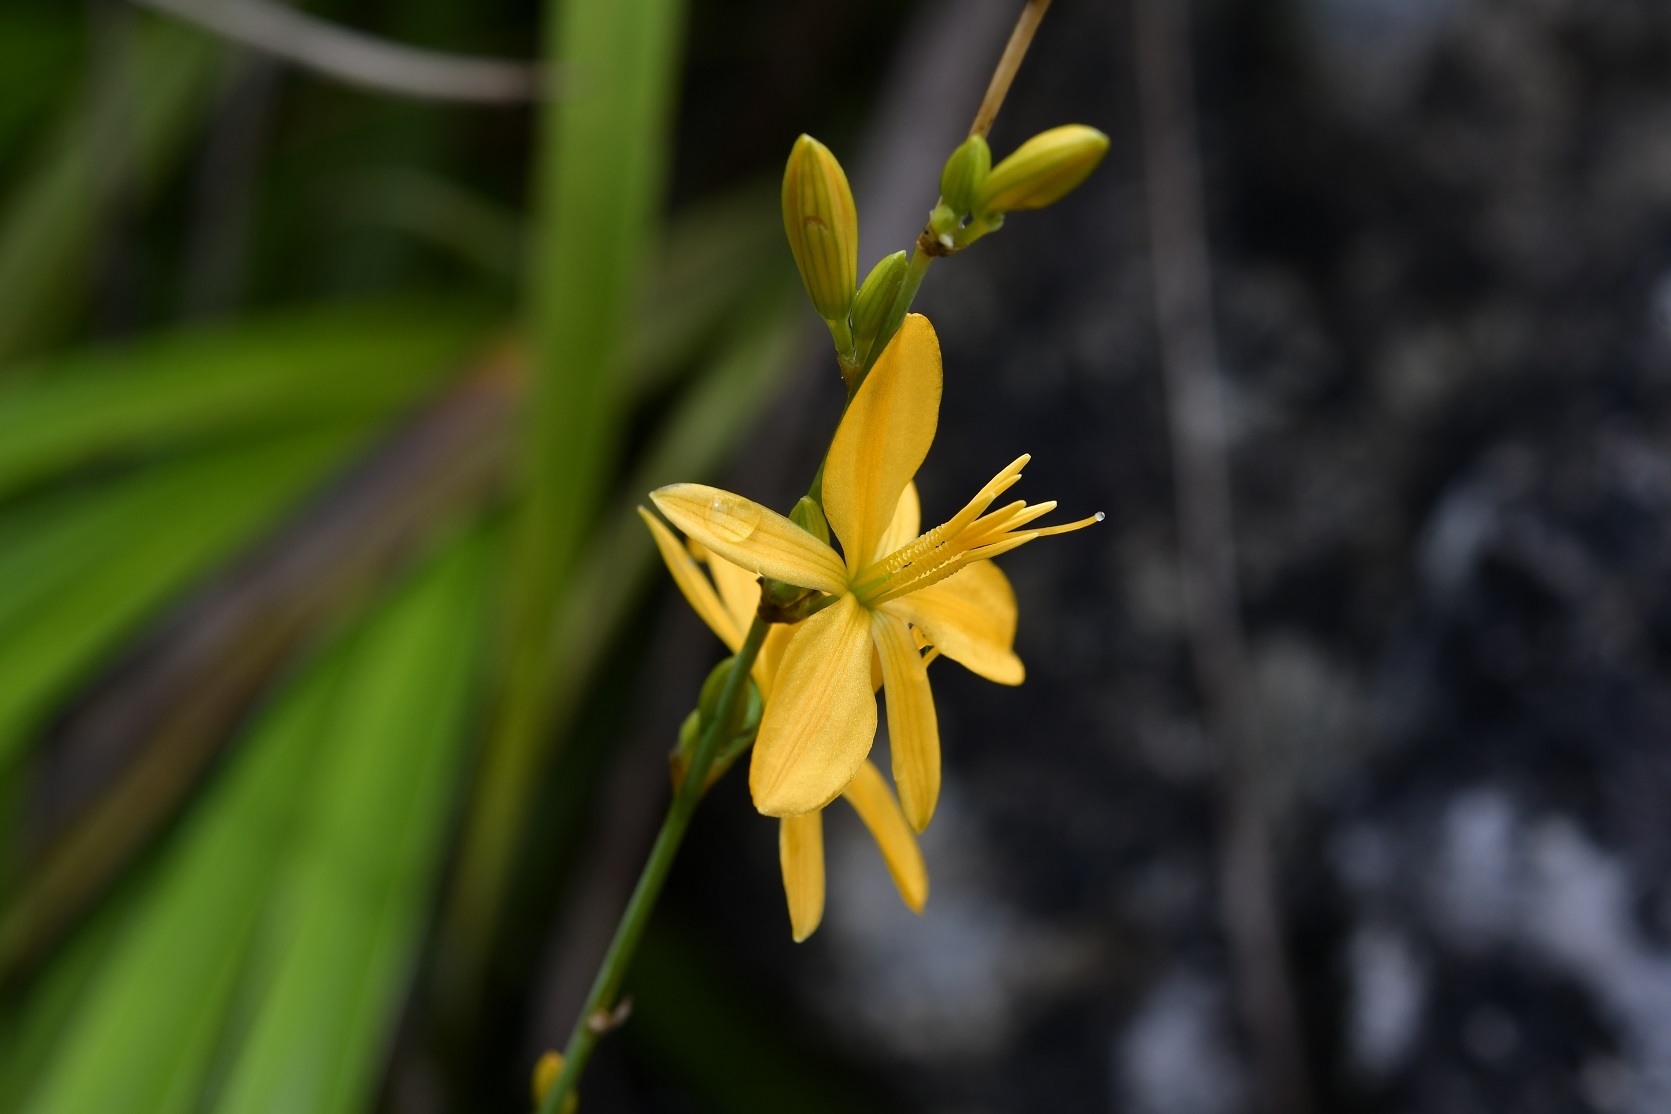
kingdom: Plantae
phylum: Tracheophyta
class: Liliopsida
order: Asparagales
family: Asparagaceae
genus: Echeandia
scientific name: Echeandia breedlovei
